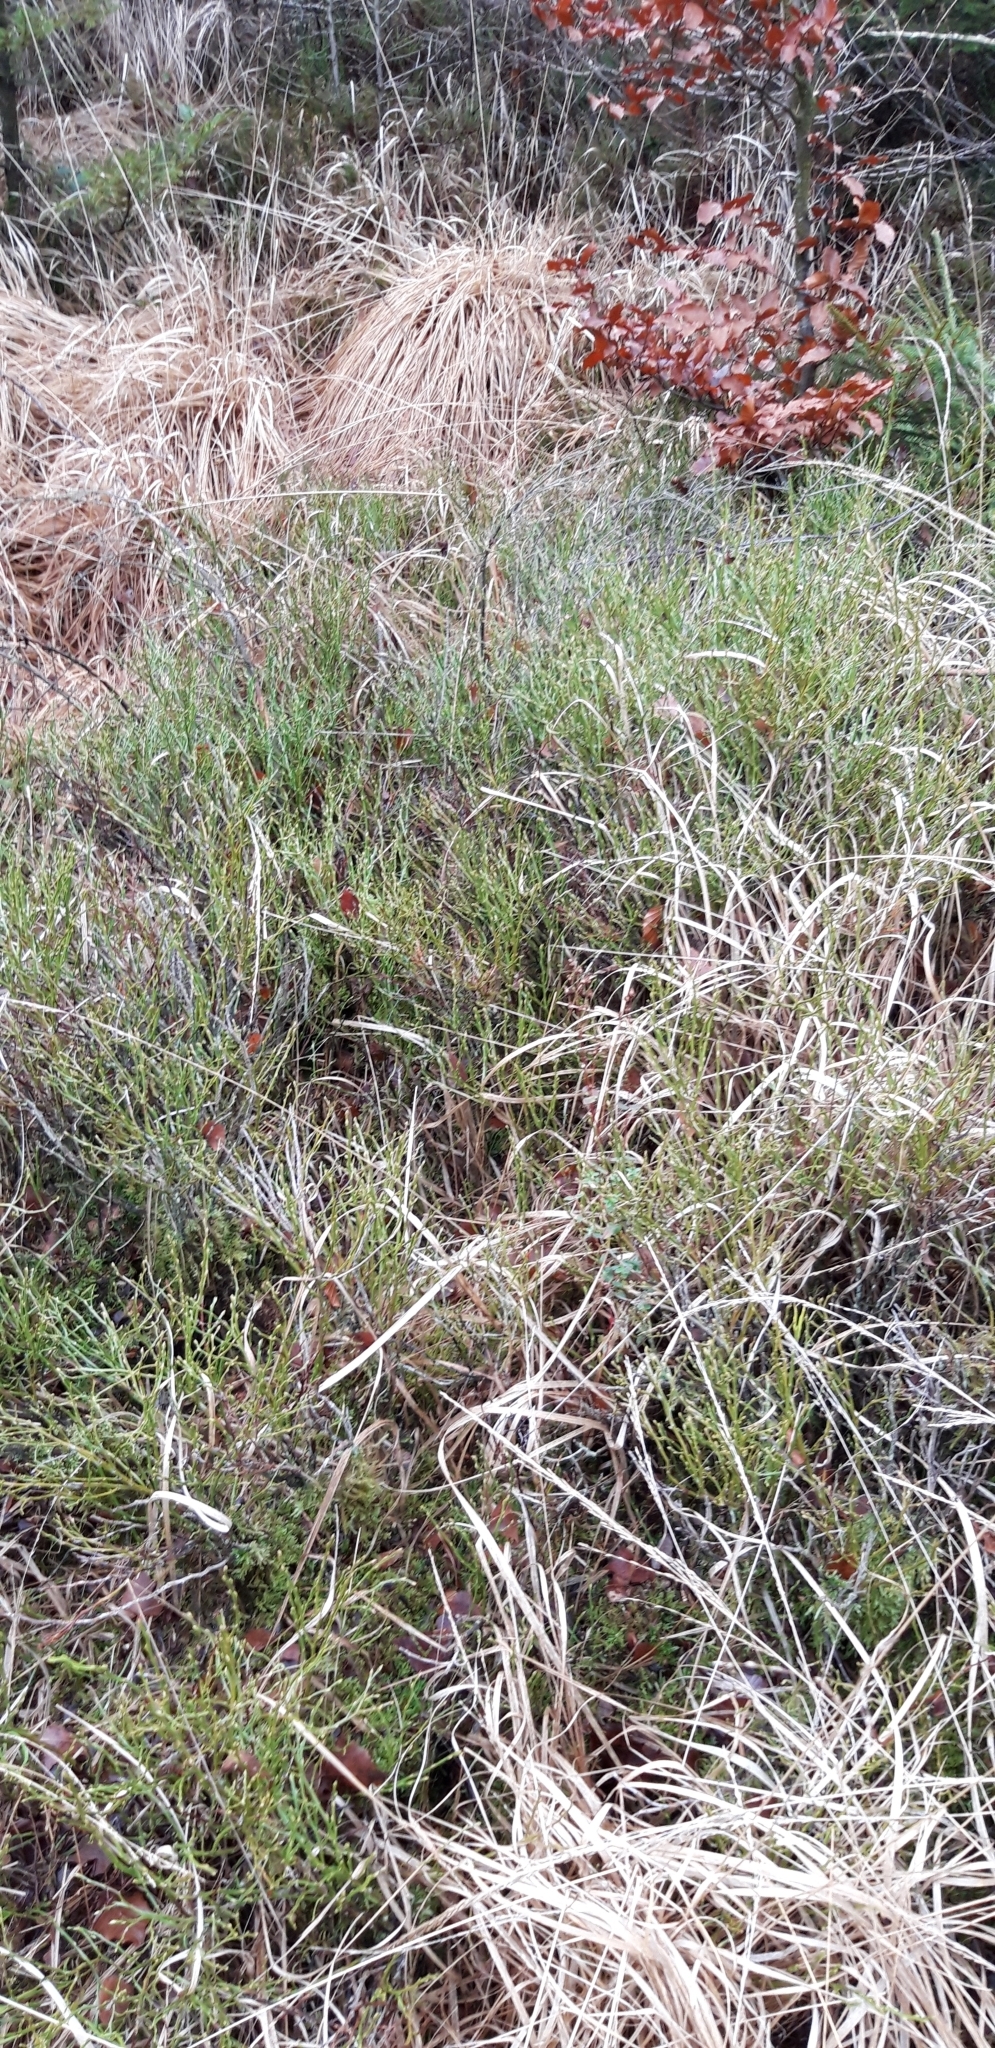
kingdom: Plantae
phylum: Tracheophyta
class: Magnoliopsida
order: Ericales
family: Ericaceae
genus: Vaccinium
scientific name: Vaccinium myrtillus
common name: Bilberry
